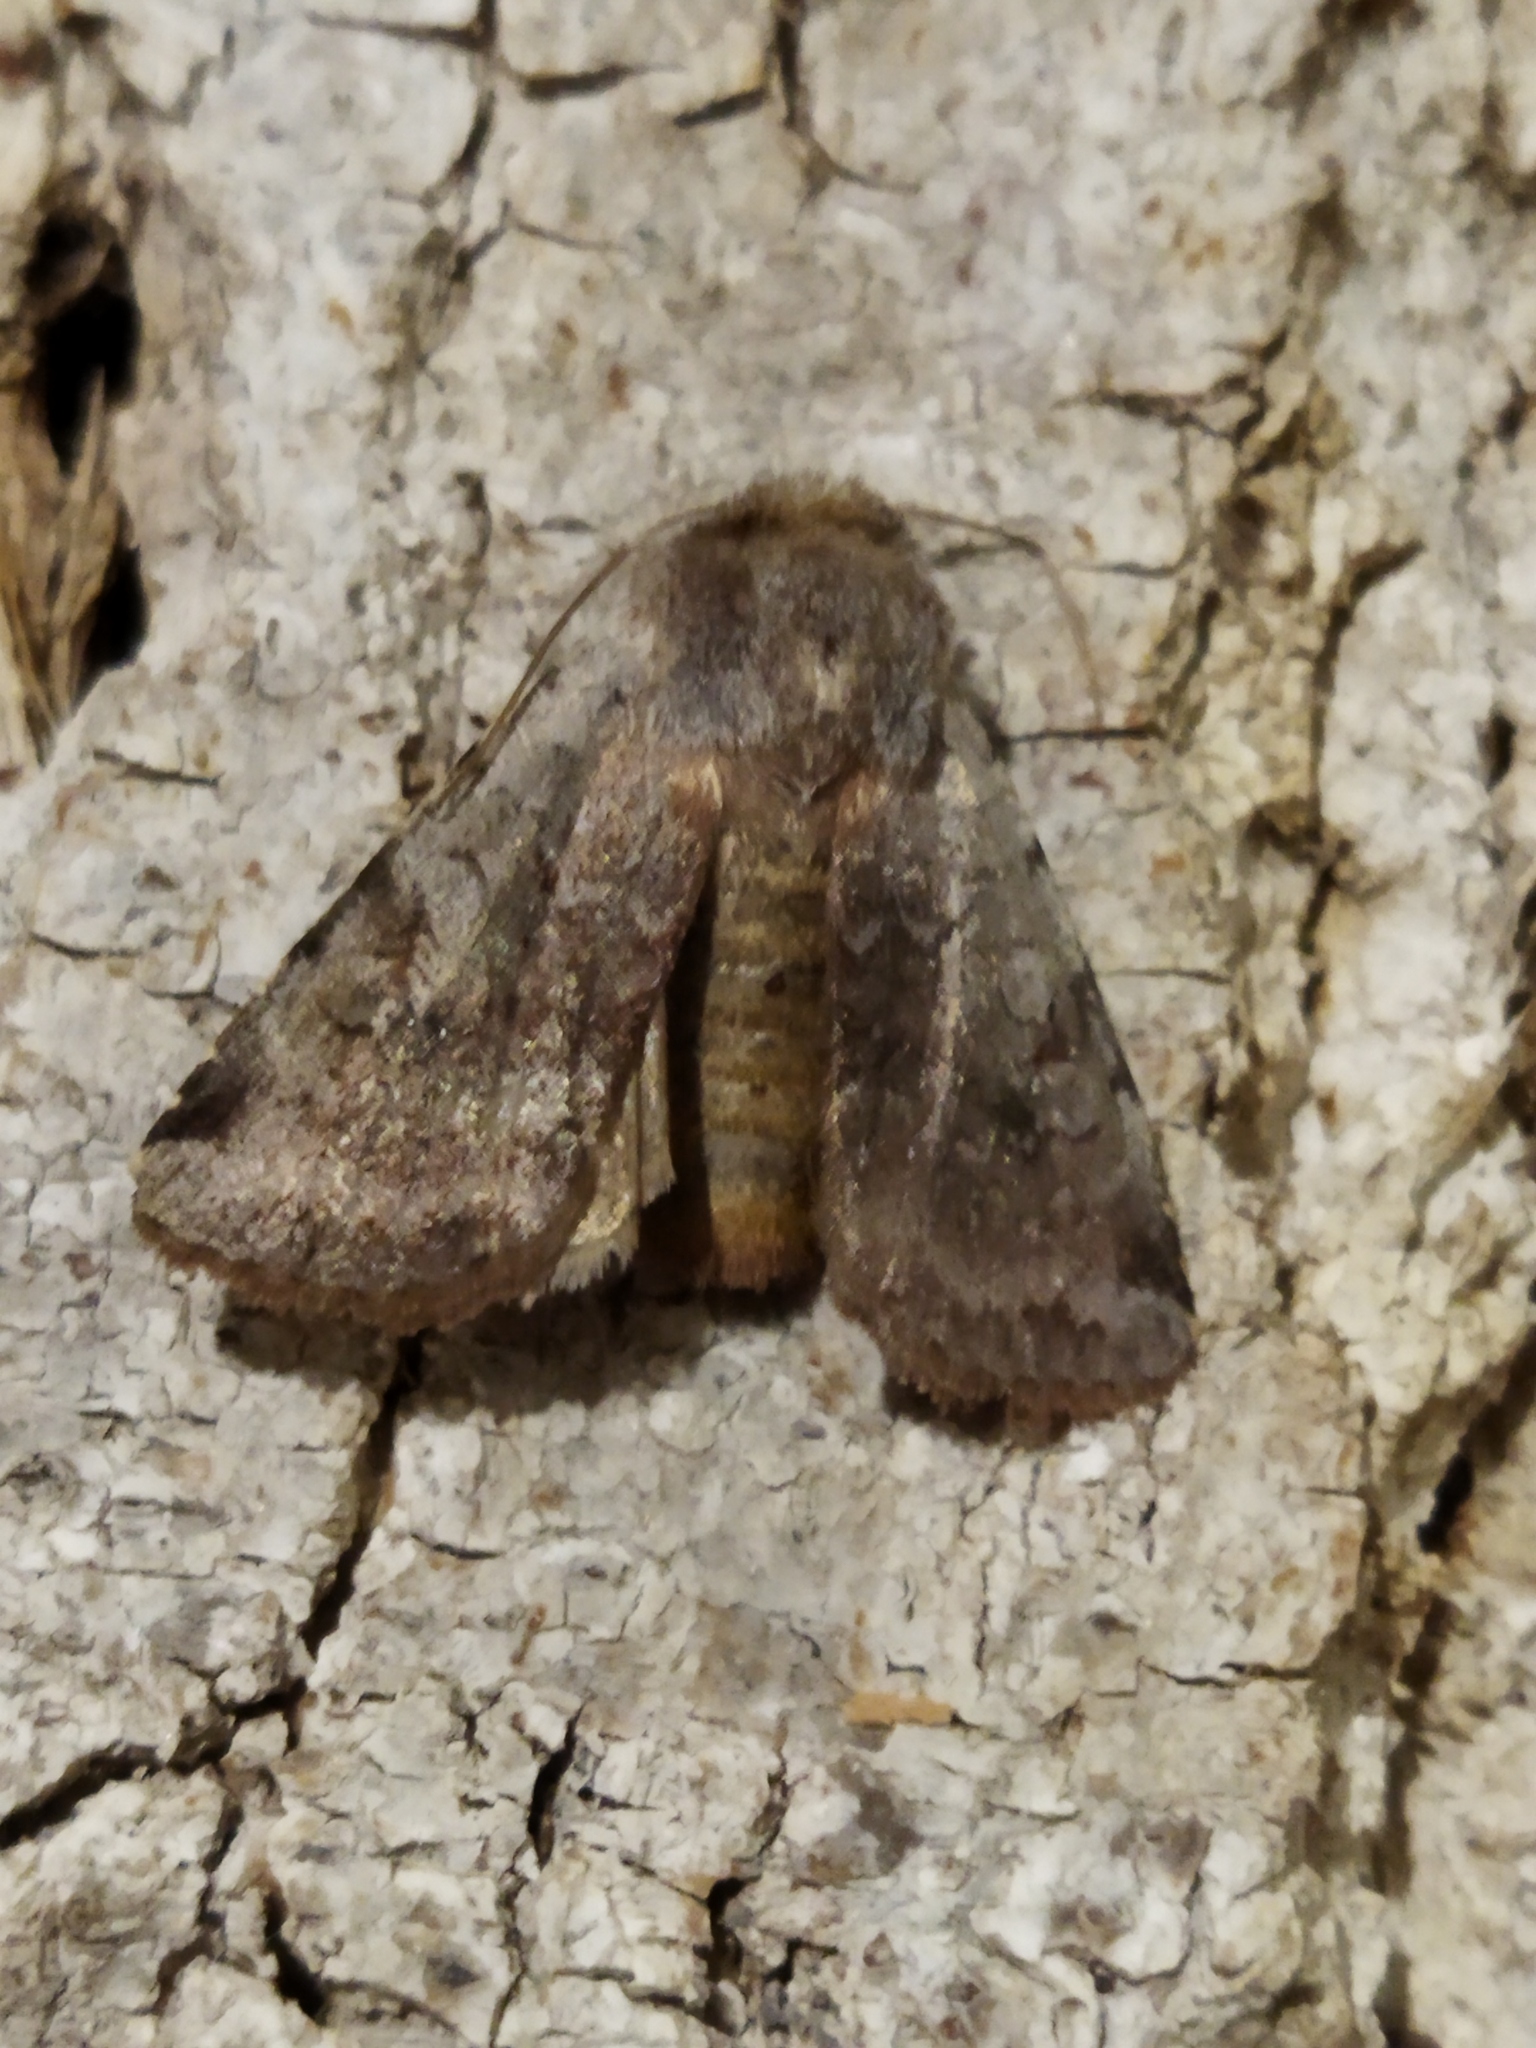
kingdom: Animalia
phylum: Arthropoda
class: Insecta
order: Lepidoptera
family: Noctuidae
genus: Cerastis
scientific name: Cerastis rubricosa
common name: Red chestnut
